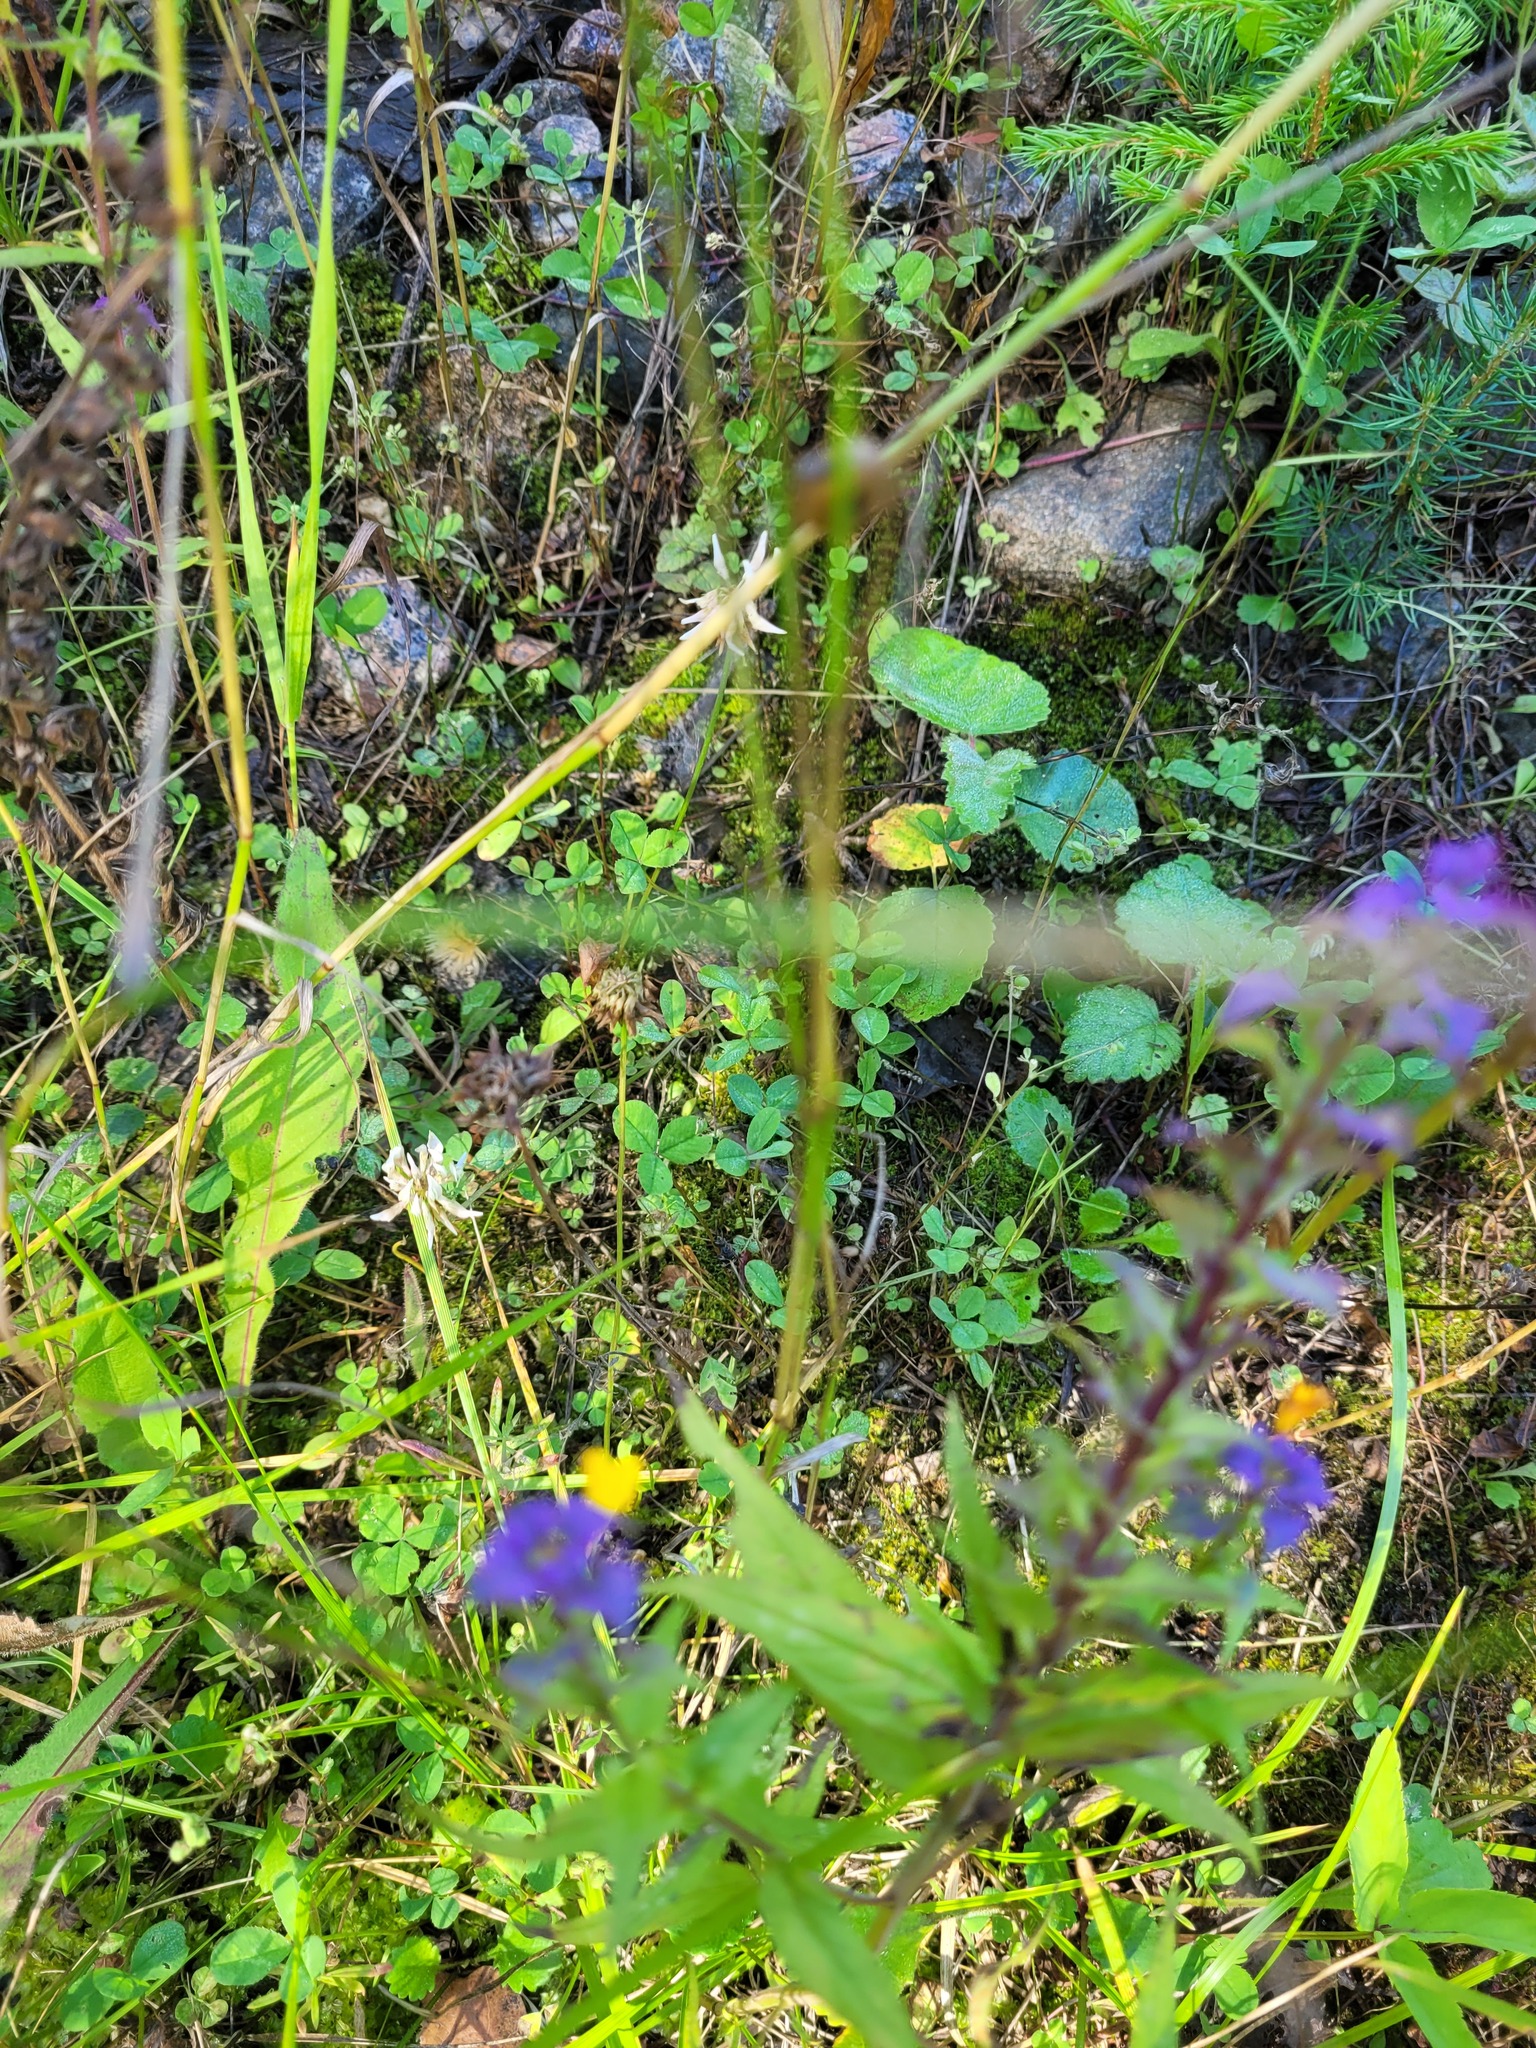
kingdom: Plantae
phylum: Tracheophyta
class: Magnoliopsida
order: Fabales
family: Fabaceae
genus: Trifolium
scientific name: Trifolium repens
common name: White clover
